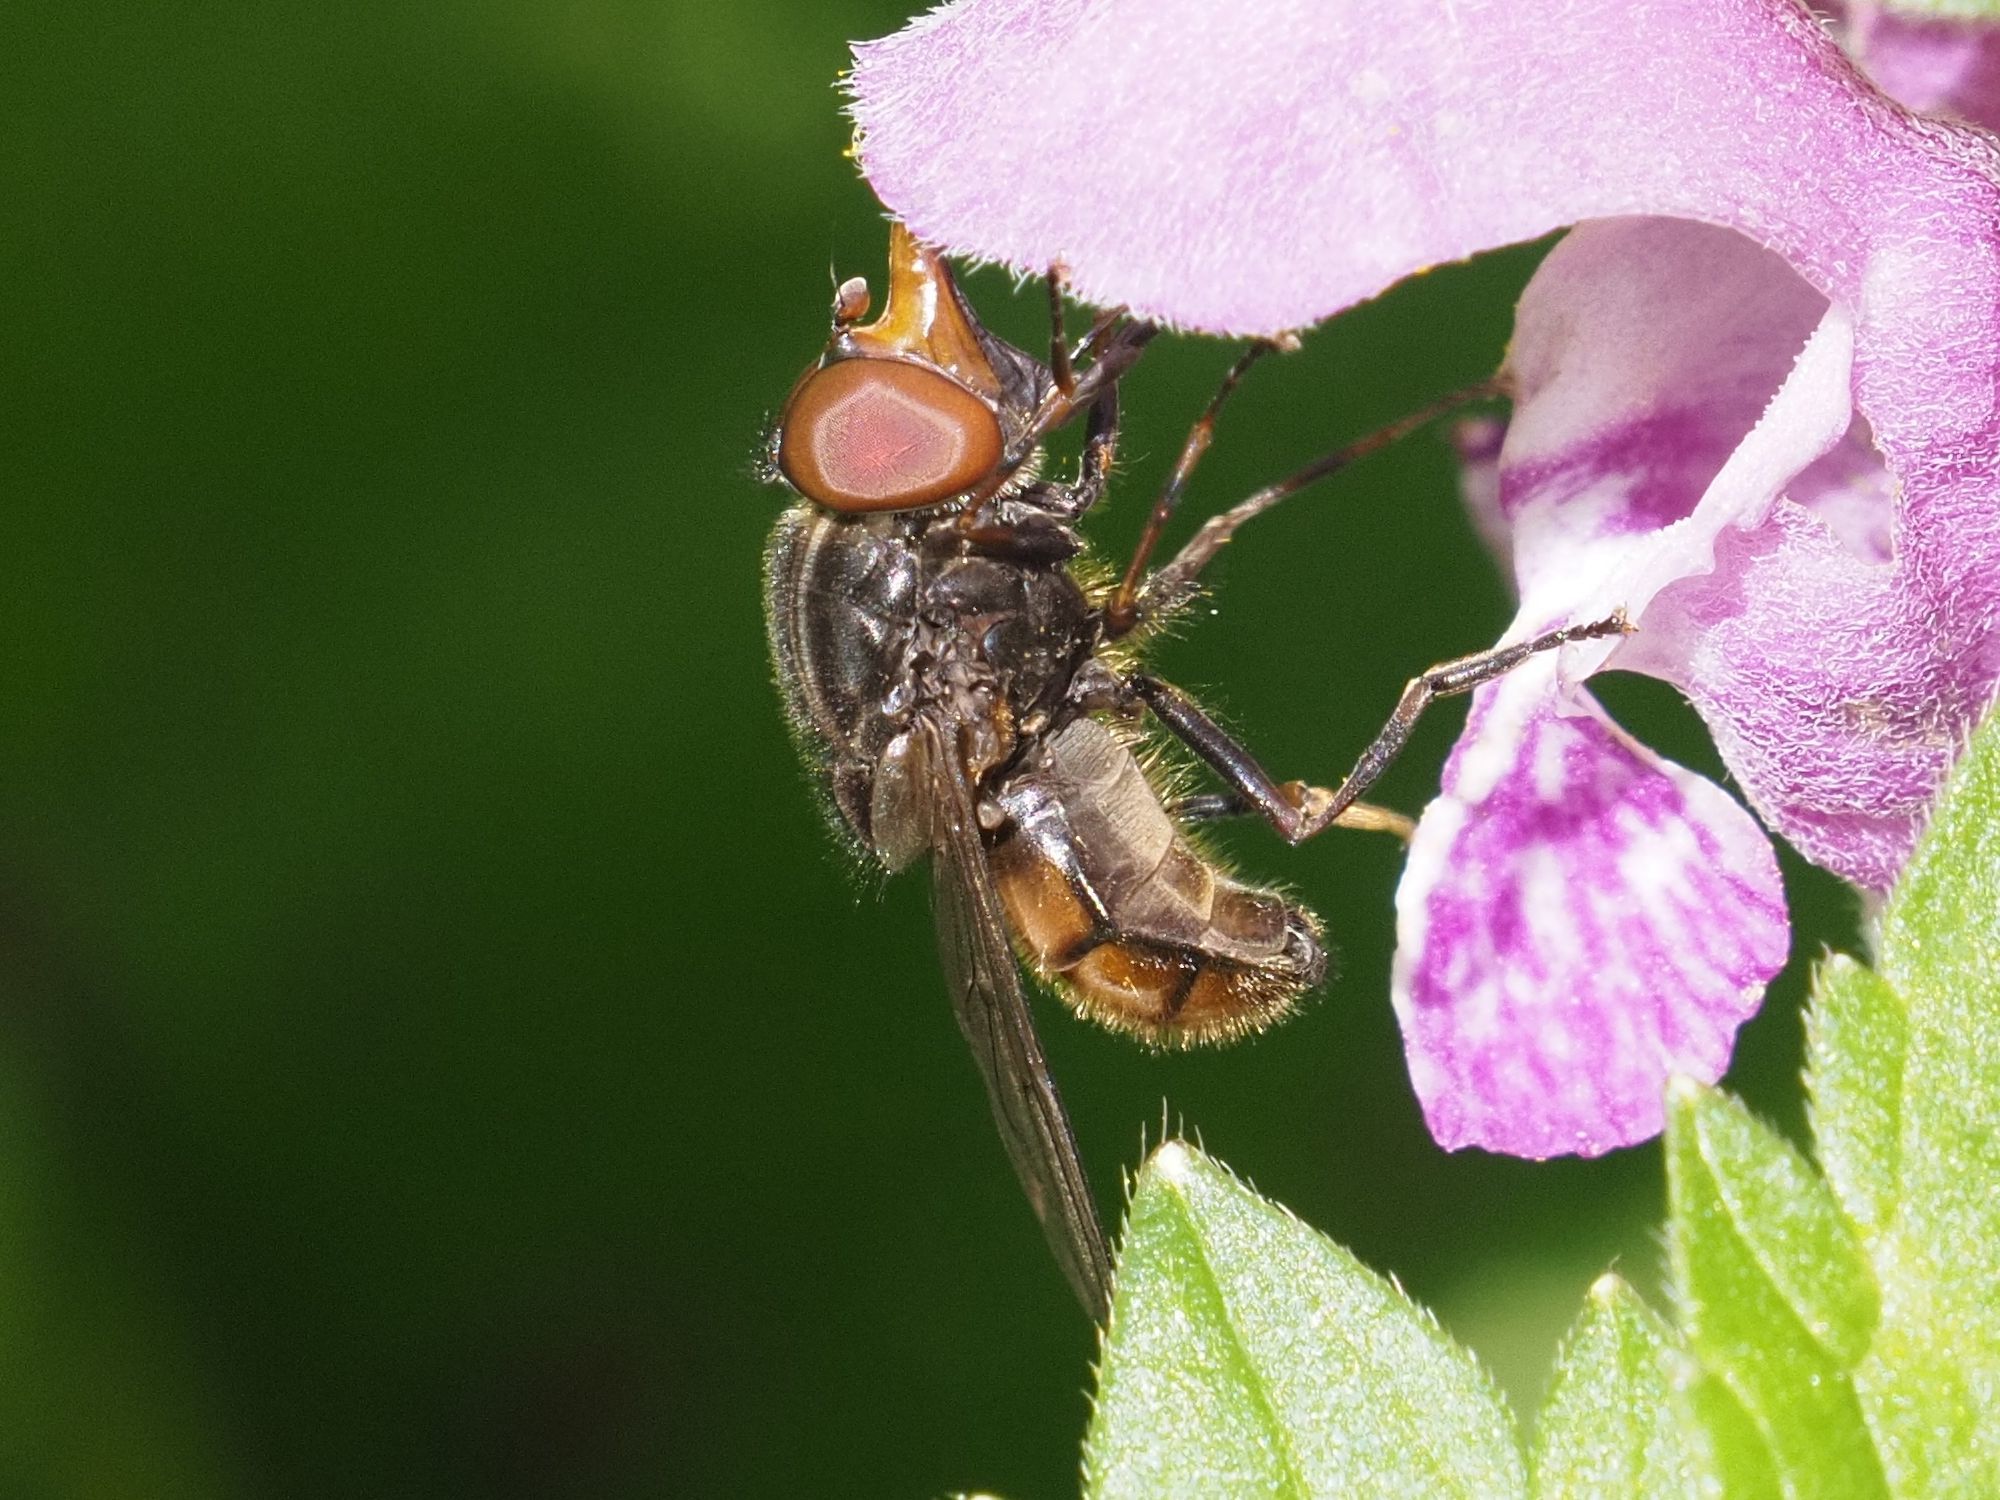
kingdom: Animalia
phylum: Arthropoda
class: Insecta
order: Diptera
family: Syrphidae
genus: Rhingia
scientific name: Rhingia campestris
